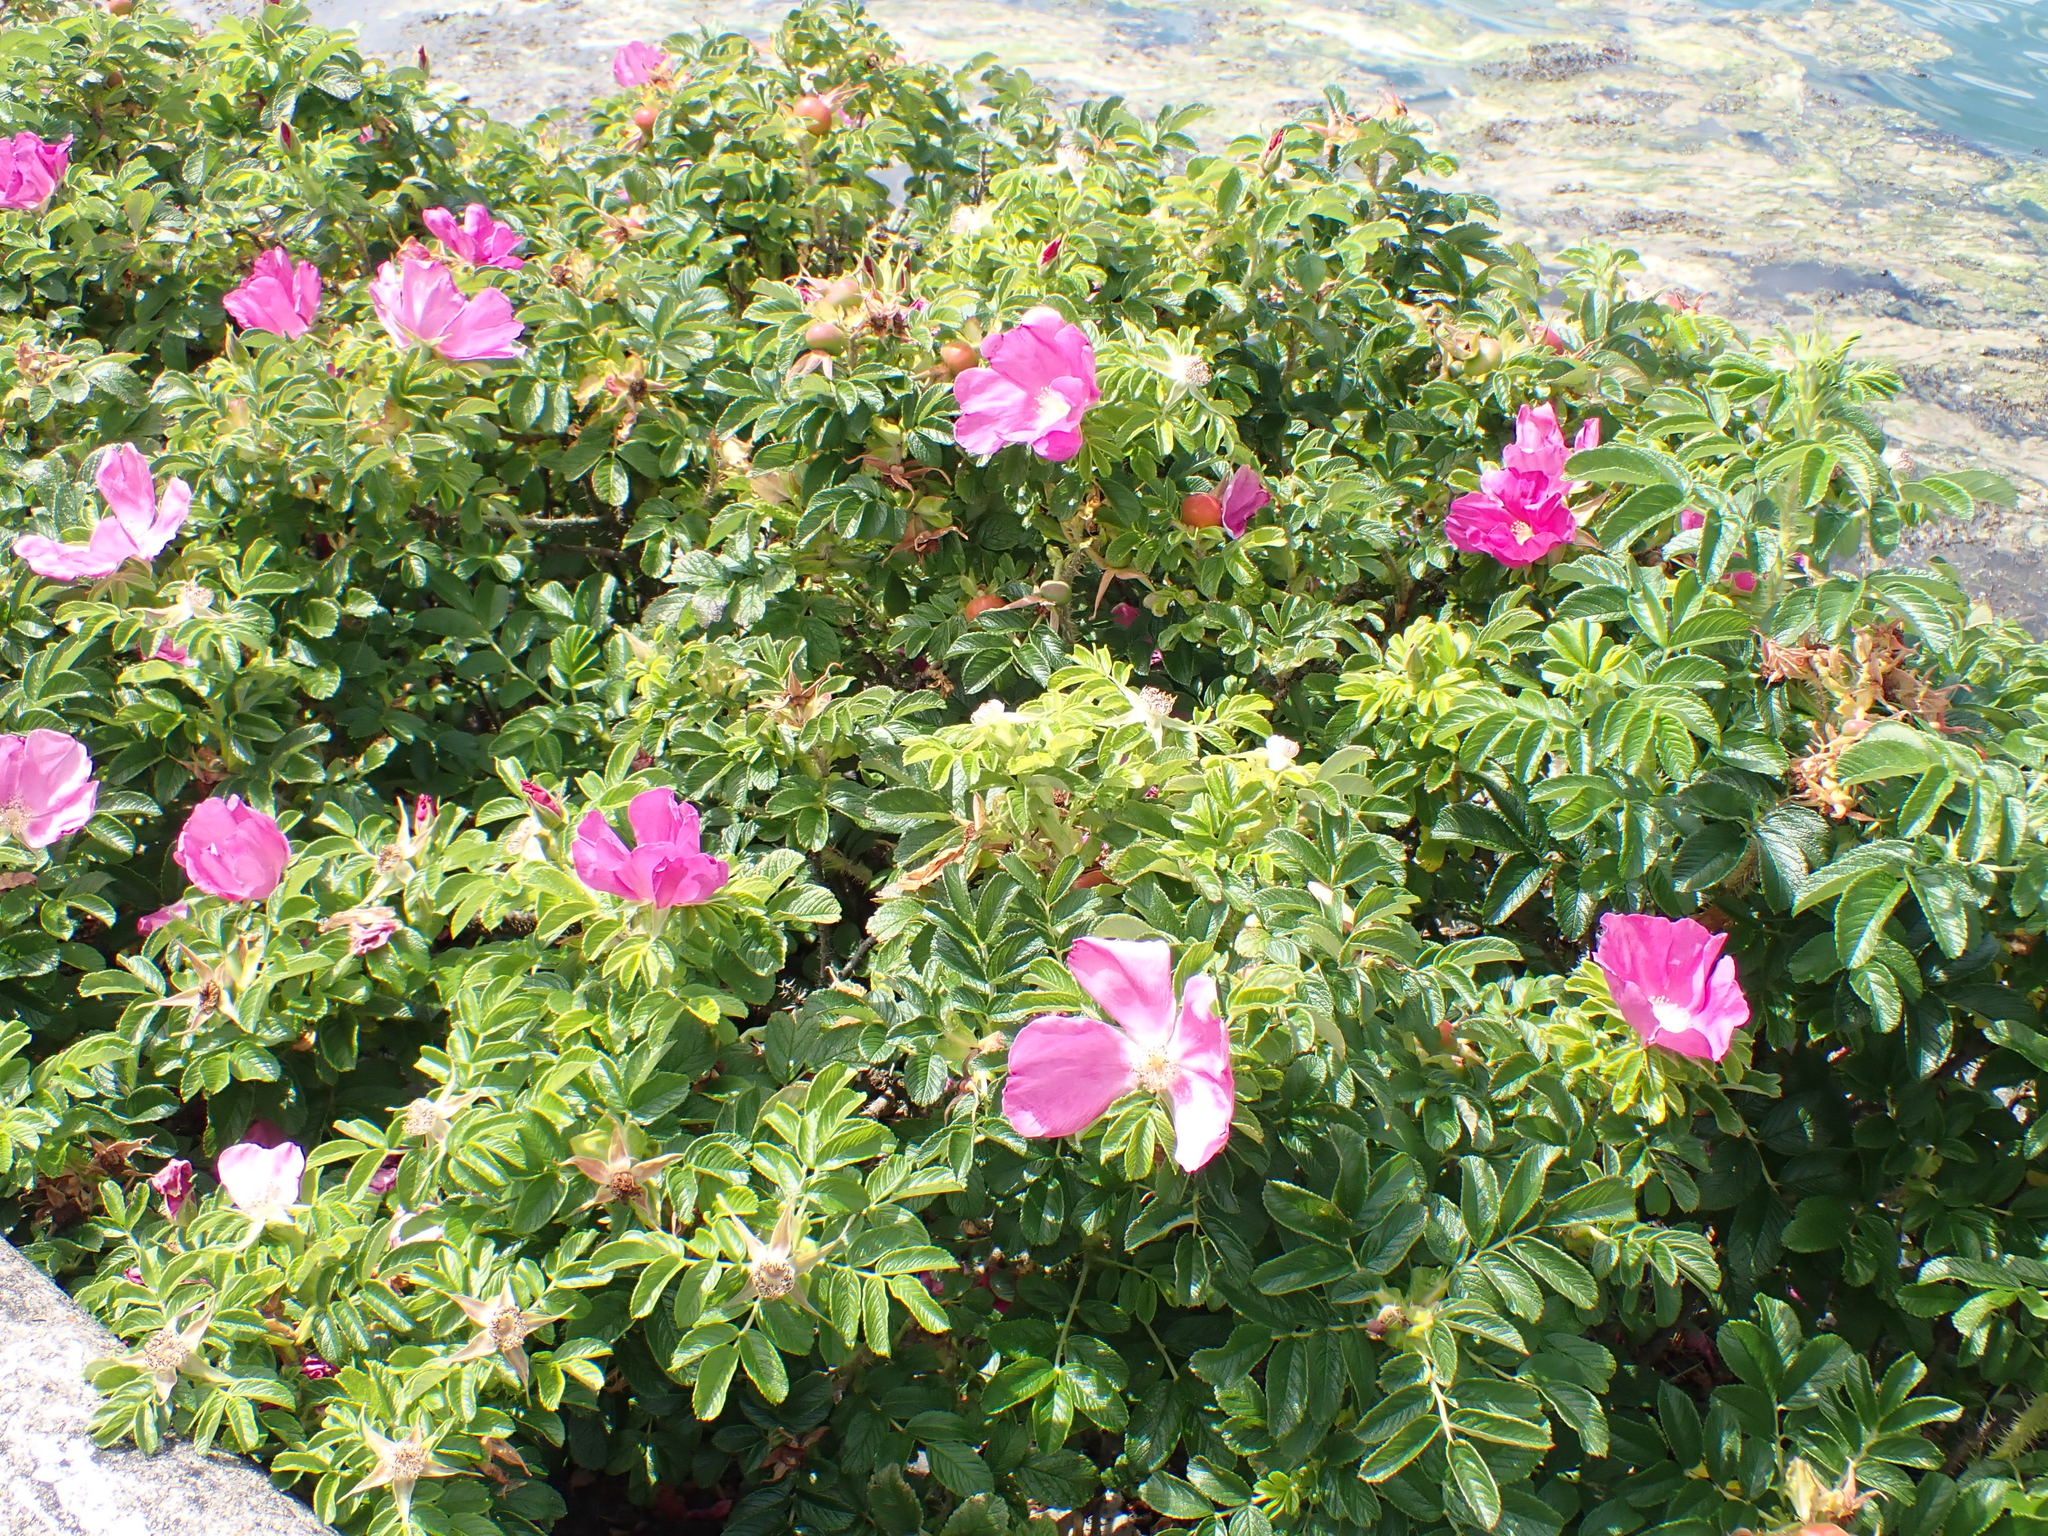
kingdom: Plantae
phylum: Tracheophyta
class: Magnoliopsida
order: Rosales
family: Rosaceae
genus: Rosa
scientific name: Rosa rugosa
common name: Japanese rose
